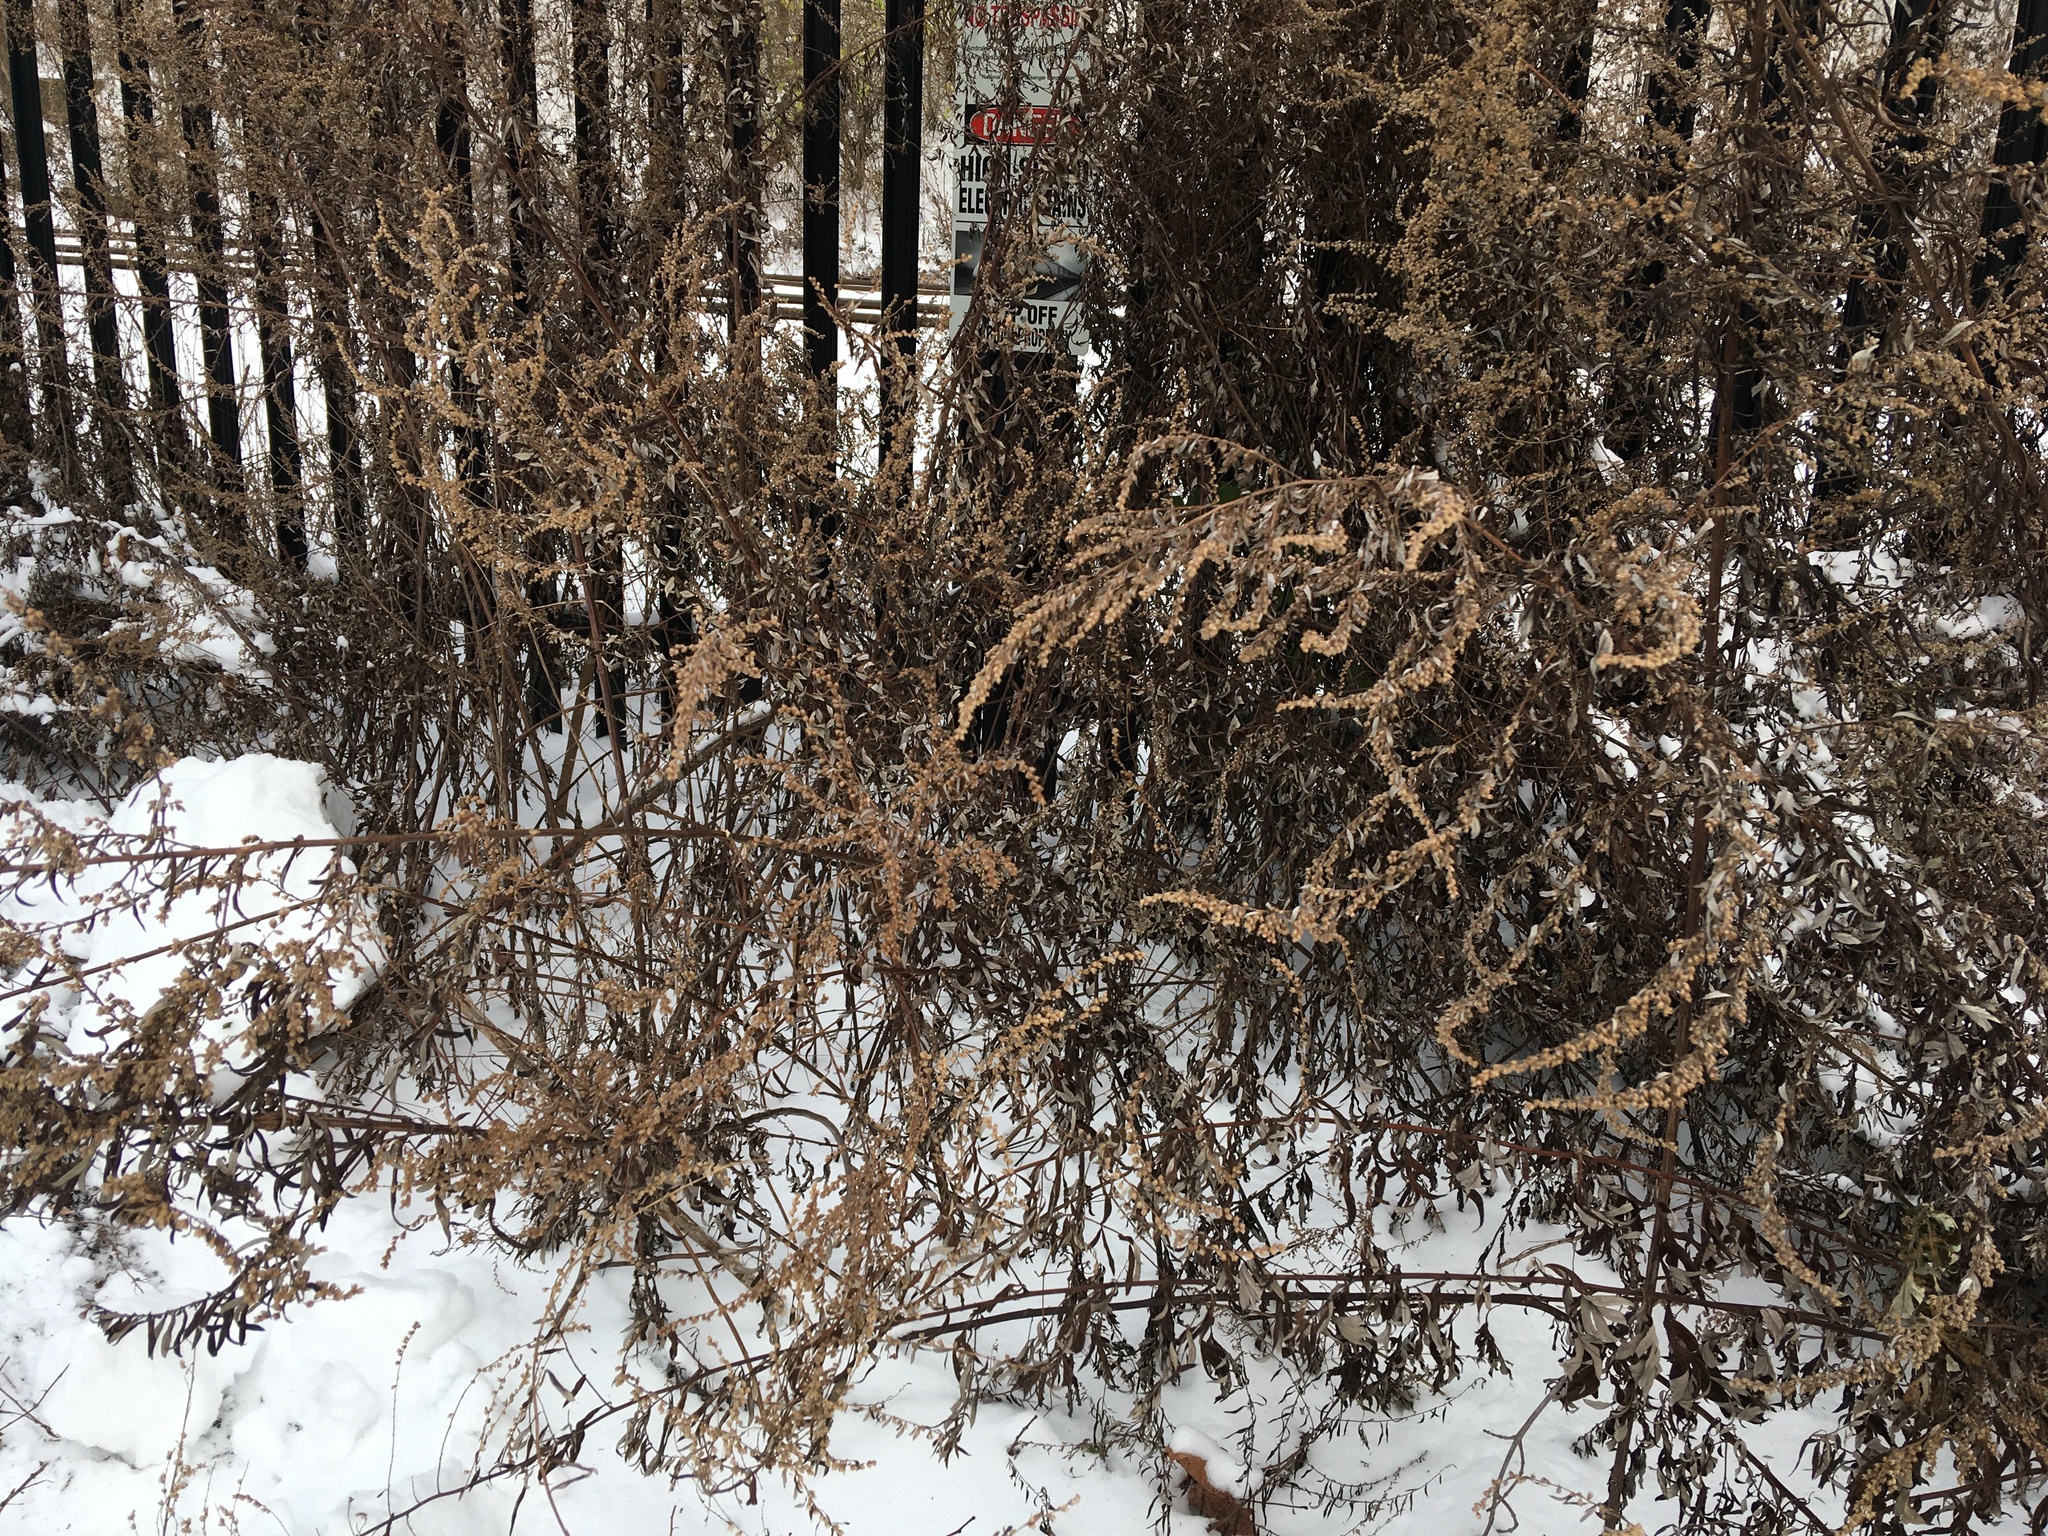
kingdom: Plantae
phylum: Tracheophyta
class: Magnoliopsida
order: Asterales
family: Asteraceae
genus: Artemisia
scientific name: Artemisia vulgaris
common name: Mugwort
